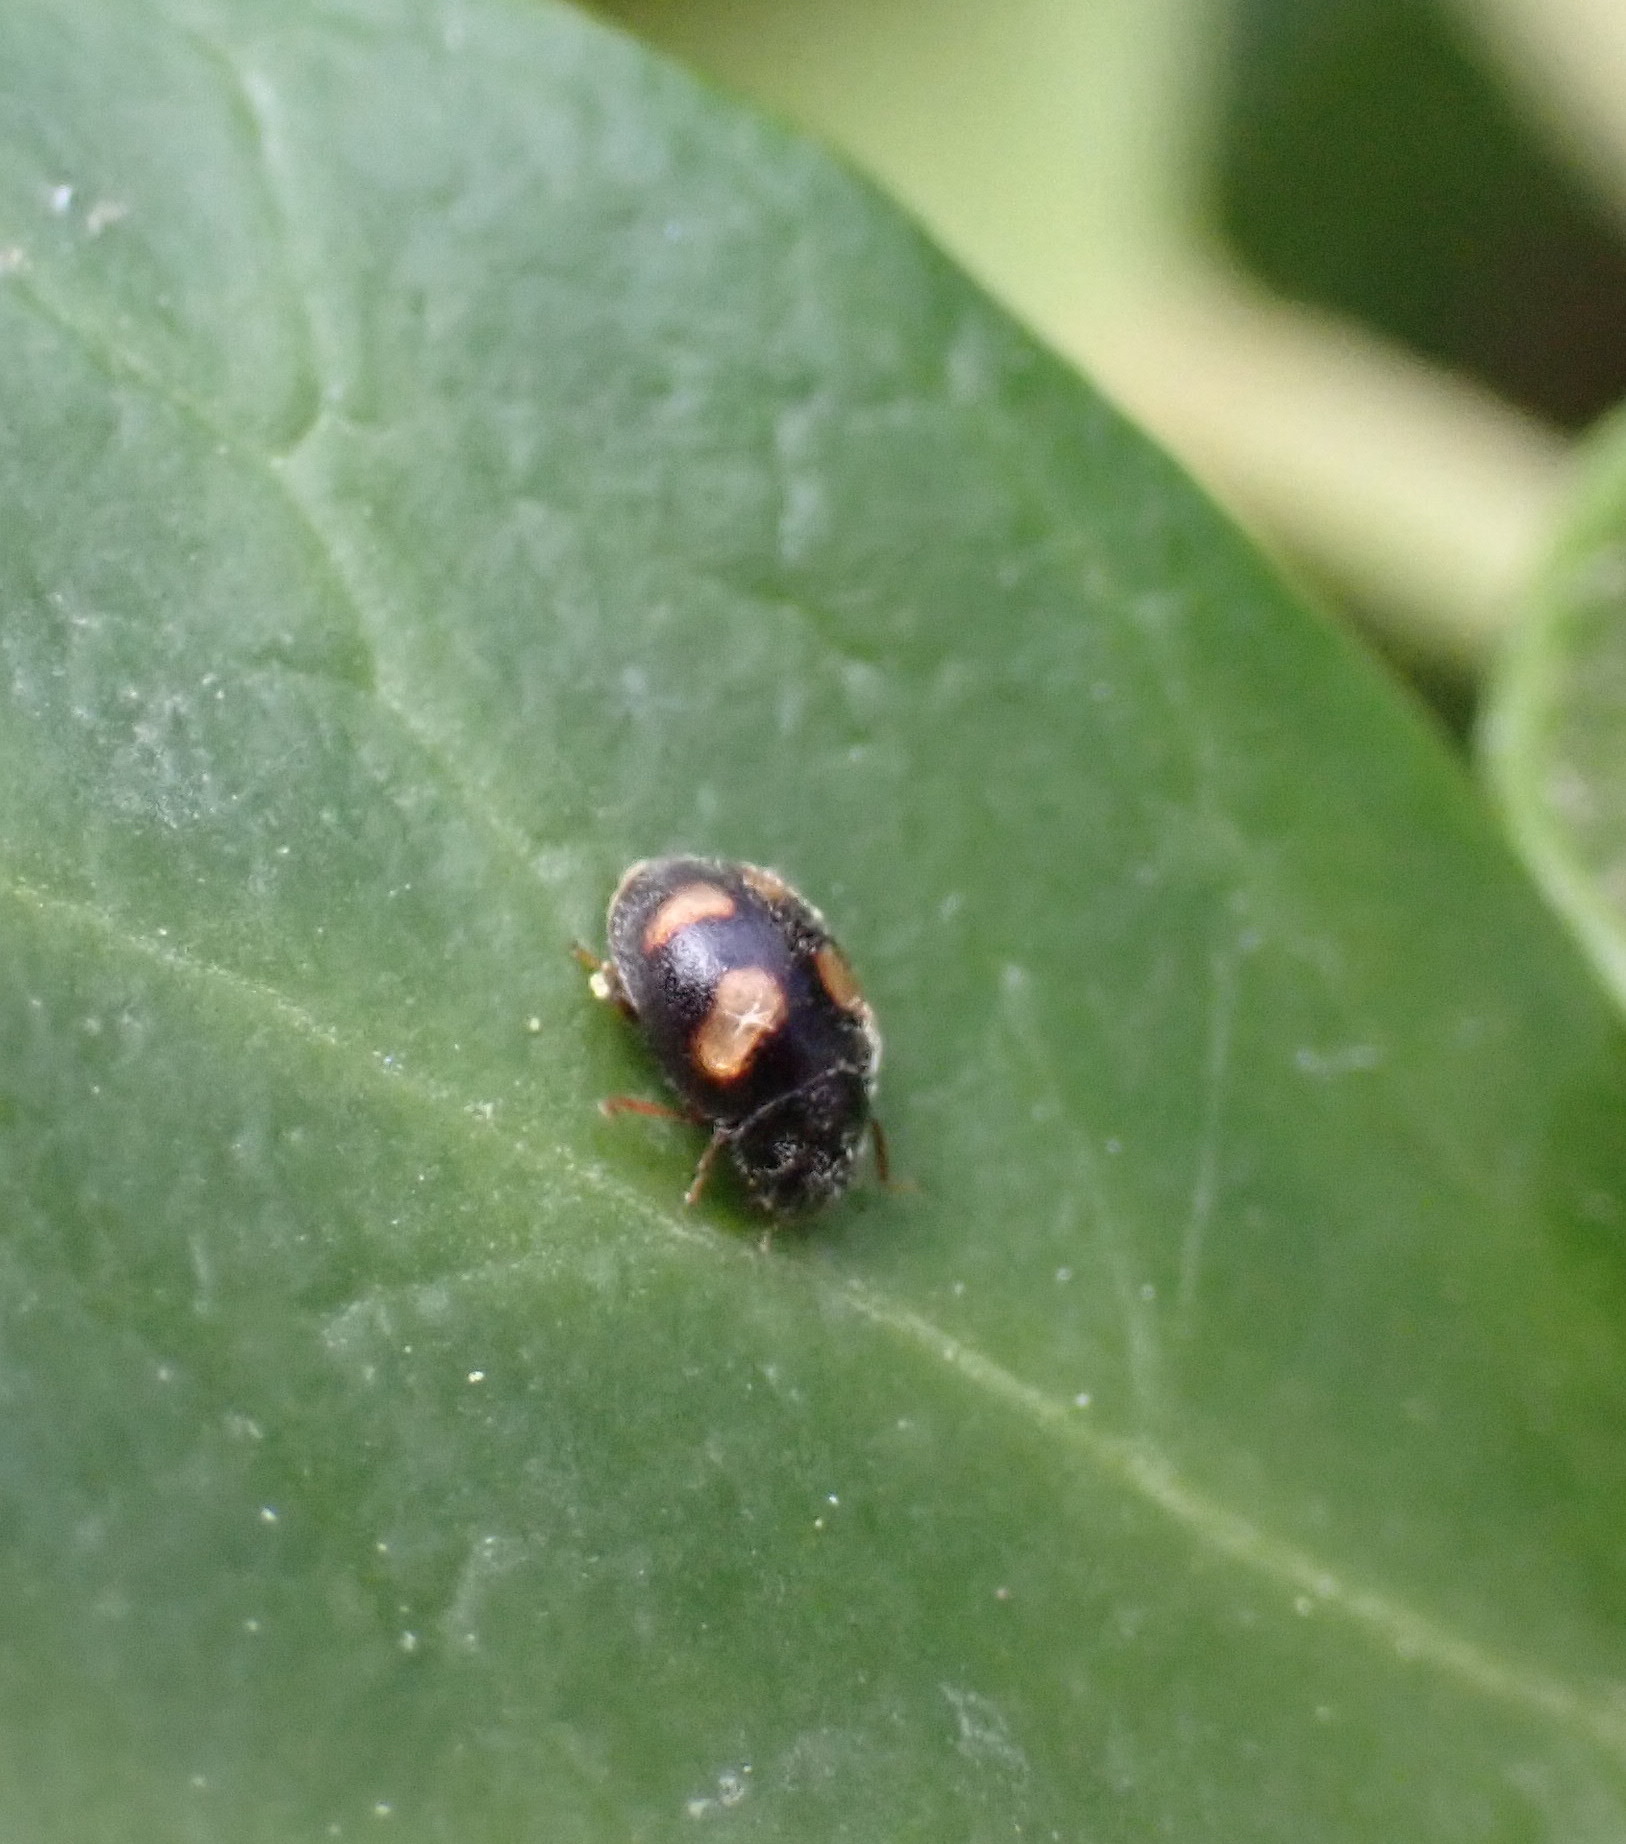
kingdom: Animalia
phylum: Arthropoda
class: Insecta
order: Coleoptera
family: Coccinellidae
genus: Nephus
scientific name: Nephus quadrimaculatus
